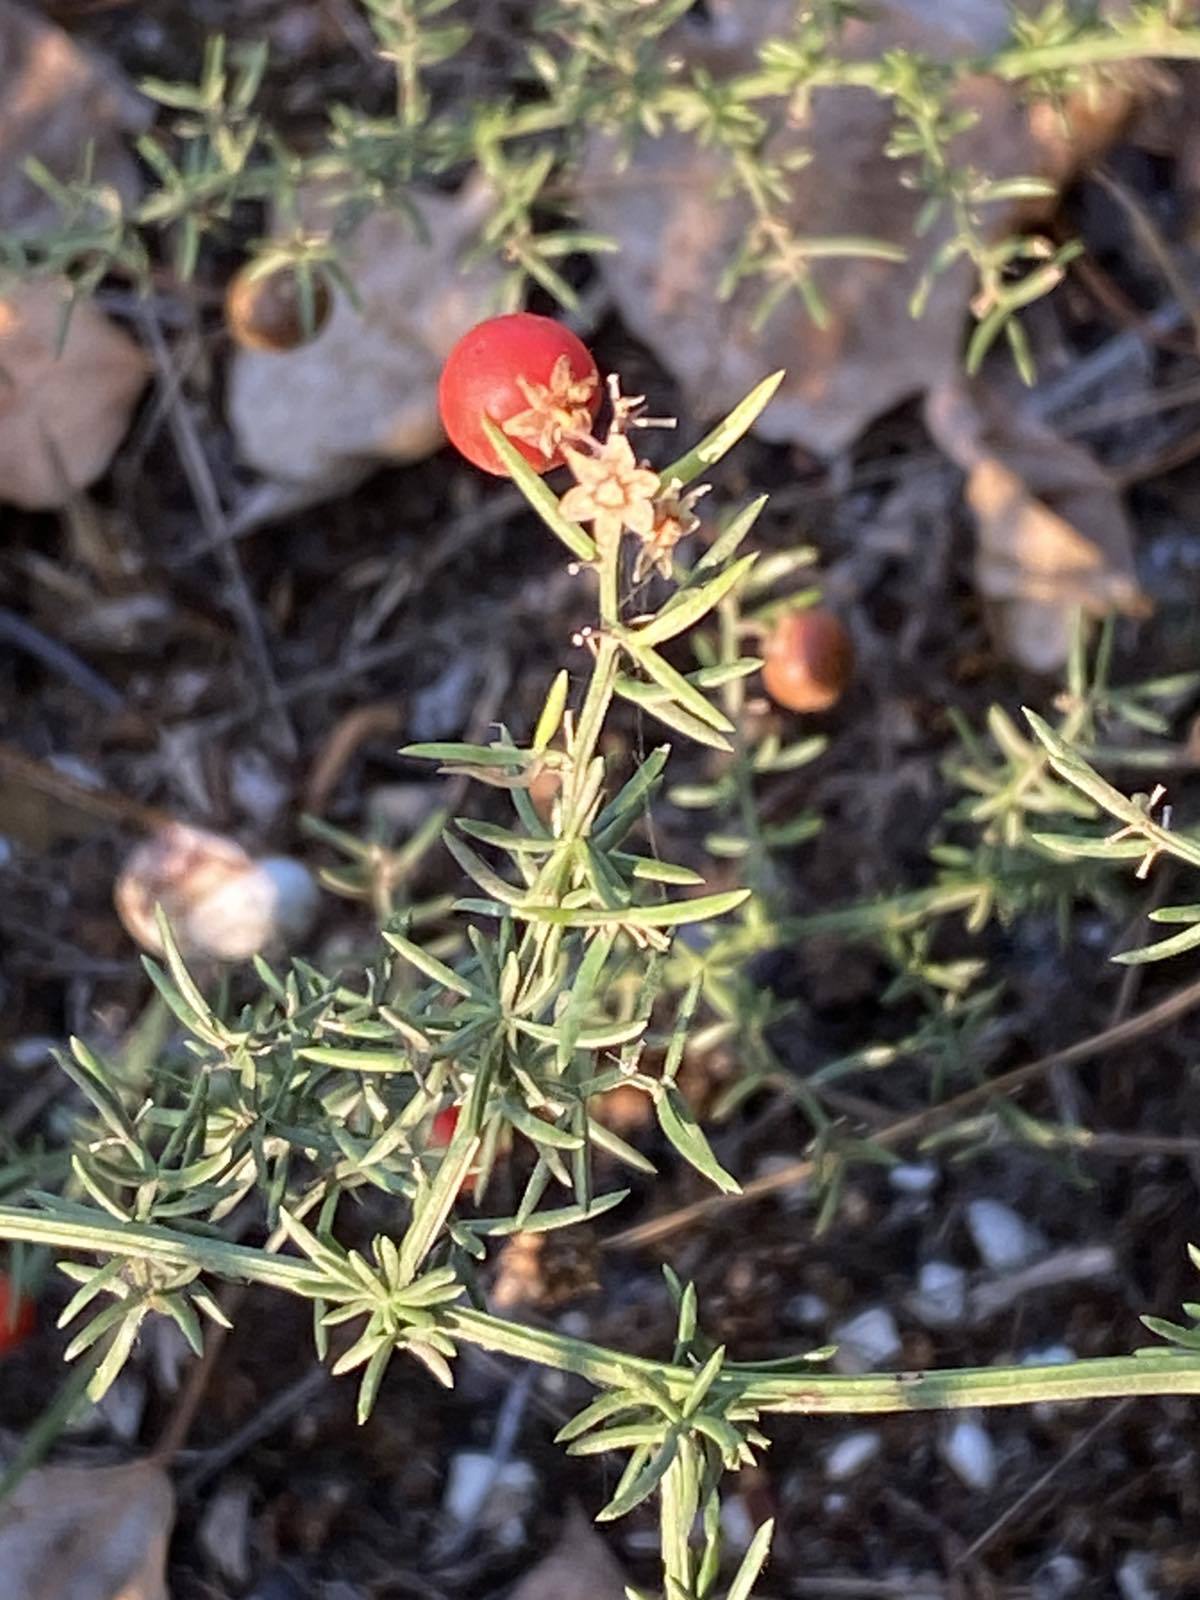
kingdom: Plantae
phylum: Tracheophyta
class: Liliopsida
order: Asparagales
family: Asparagaceae
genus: Asparagus
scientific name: Asparagus verticillatus
